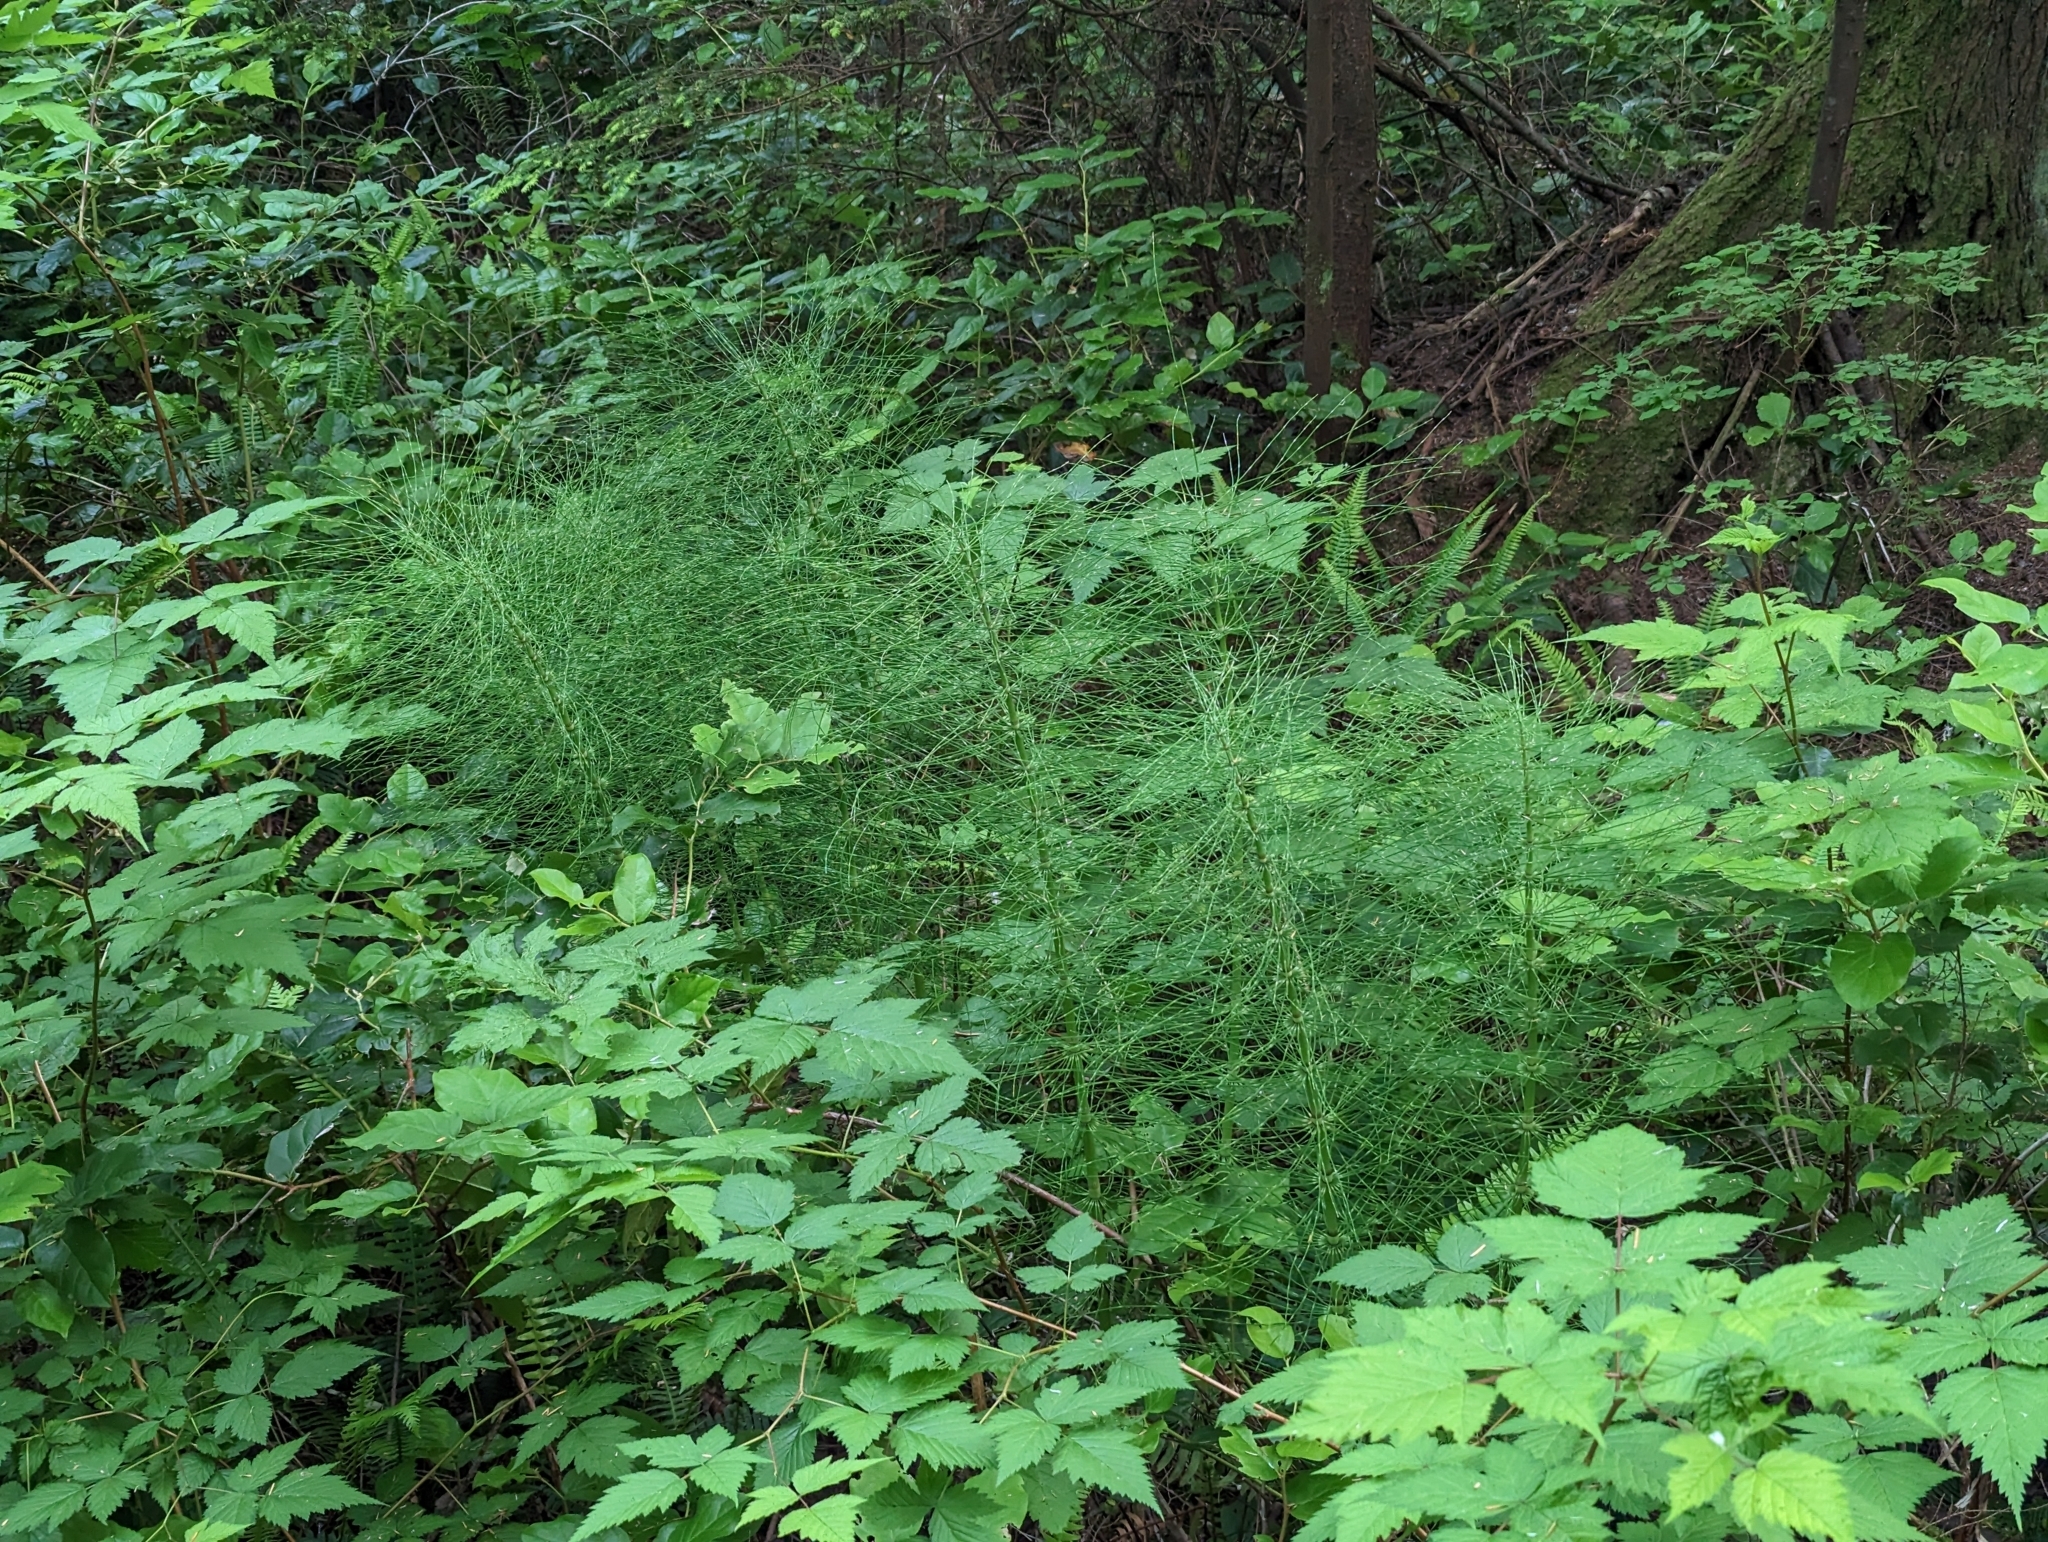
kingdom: Plantae
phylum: Tracheophyta
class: Polypodiopsida
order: Equisetales
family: Equisetaceae
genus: Equisetum
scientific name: Equisetum braunii
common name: Braun's horsetail
